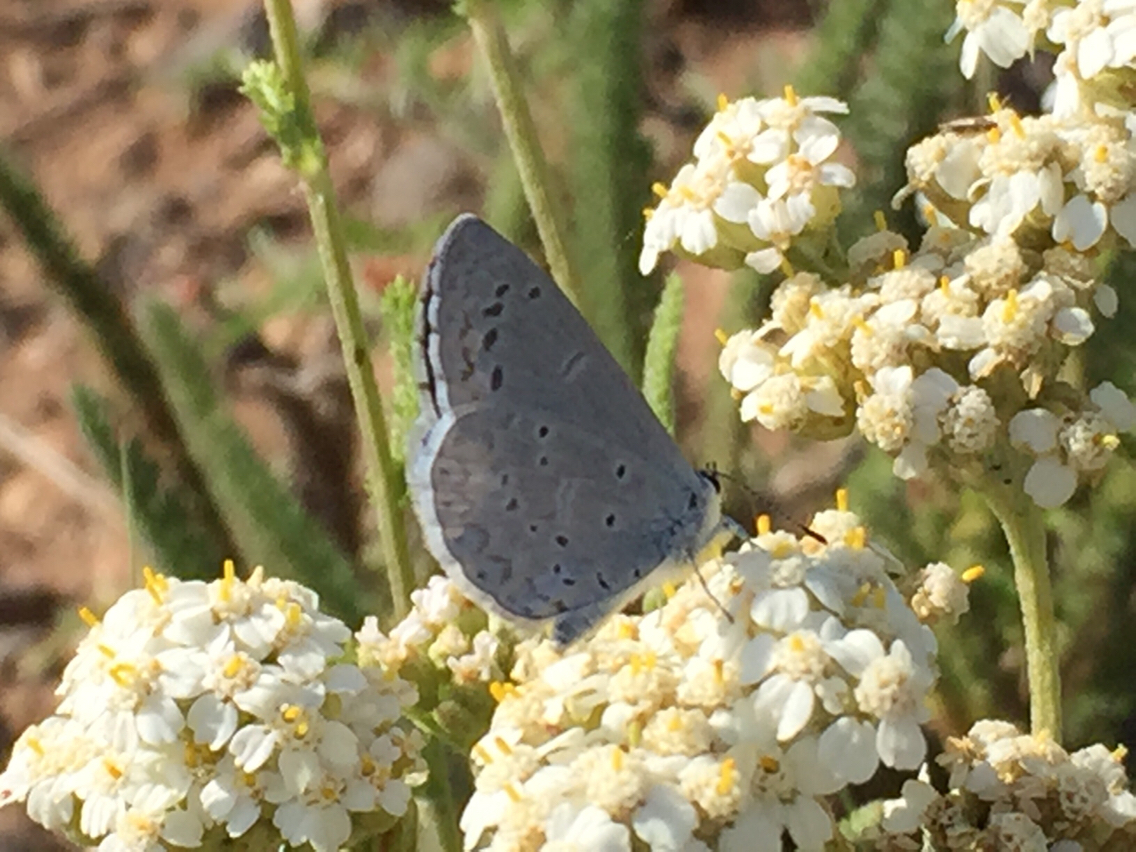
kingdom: Animalia
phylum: Arthropoda
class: Insecta
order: Lepidoptera
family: Lycaenidae
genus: Celastrina
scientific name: Celastrina argiolus
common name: Holly blue
